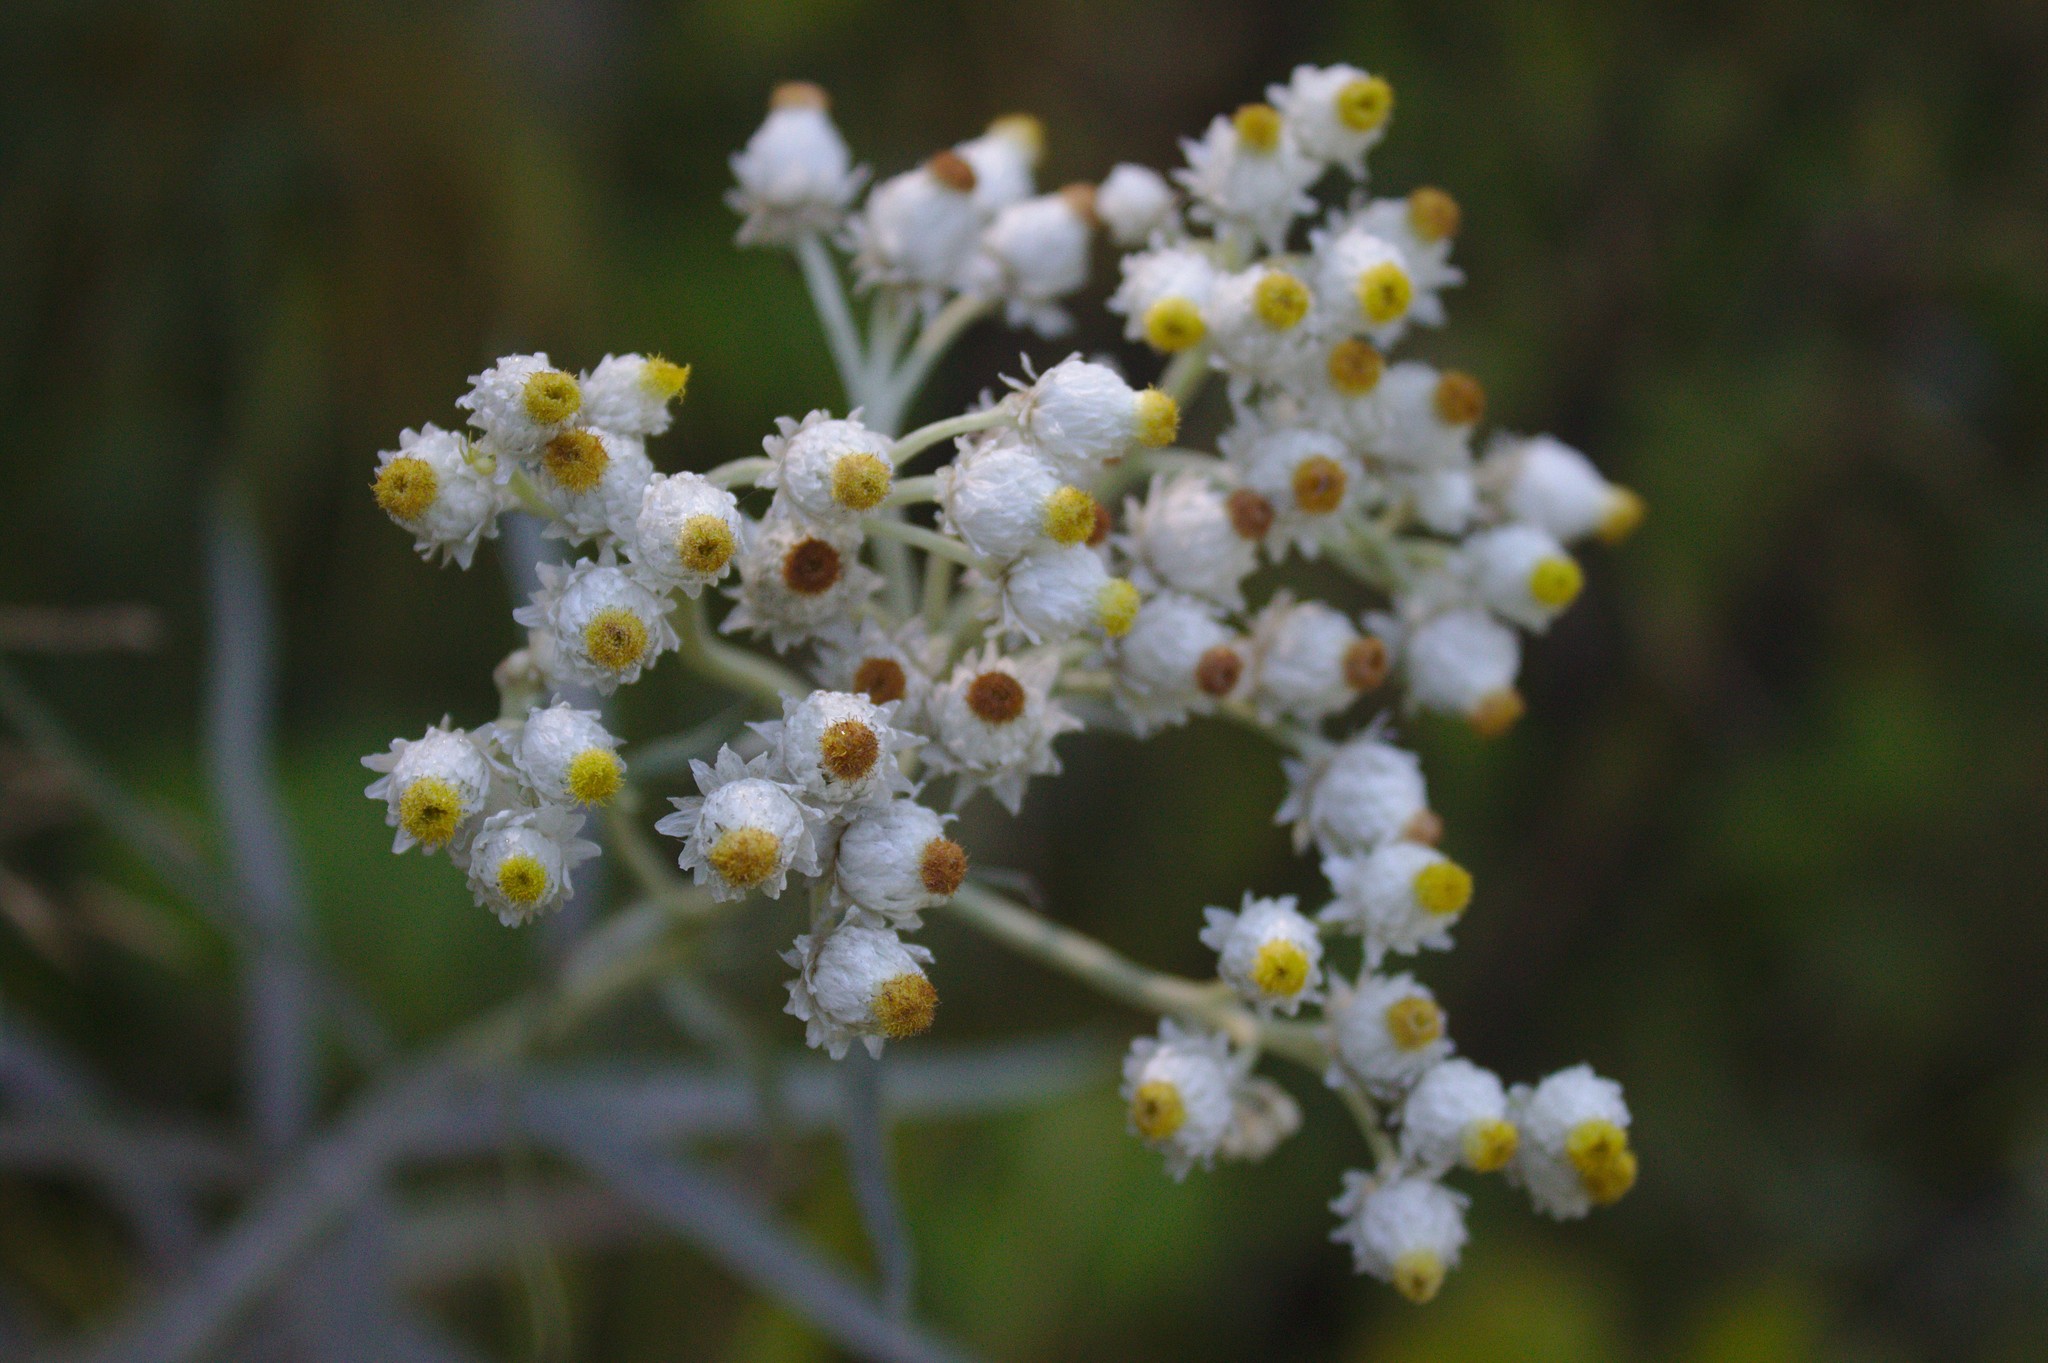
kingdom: Plantae
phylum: Tracheophyta
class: Magnoliopsida
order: Asterales
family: Asteraceae
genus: Anaphalis
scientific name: Anaphalis margaritacea
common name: Pearly everlasting
